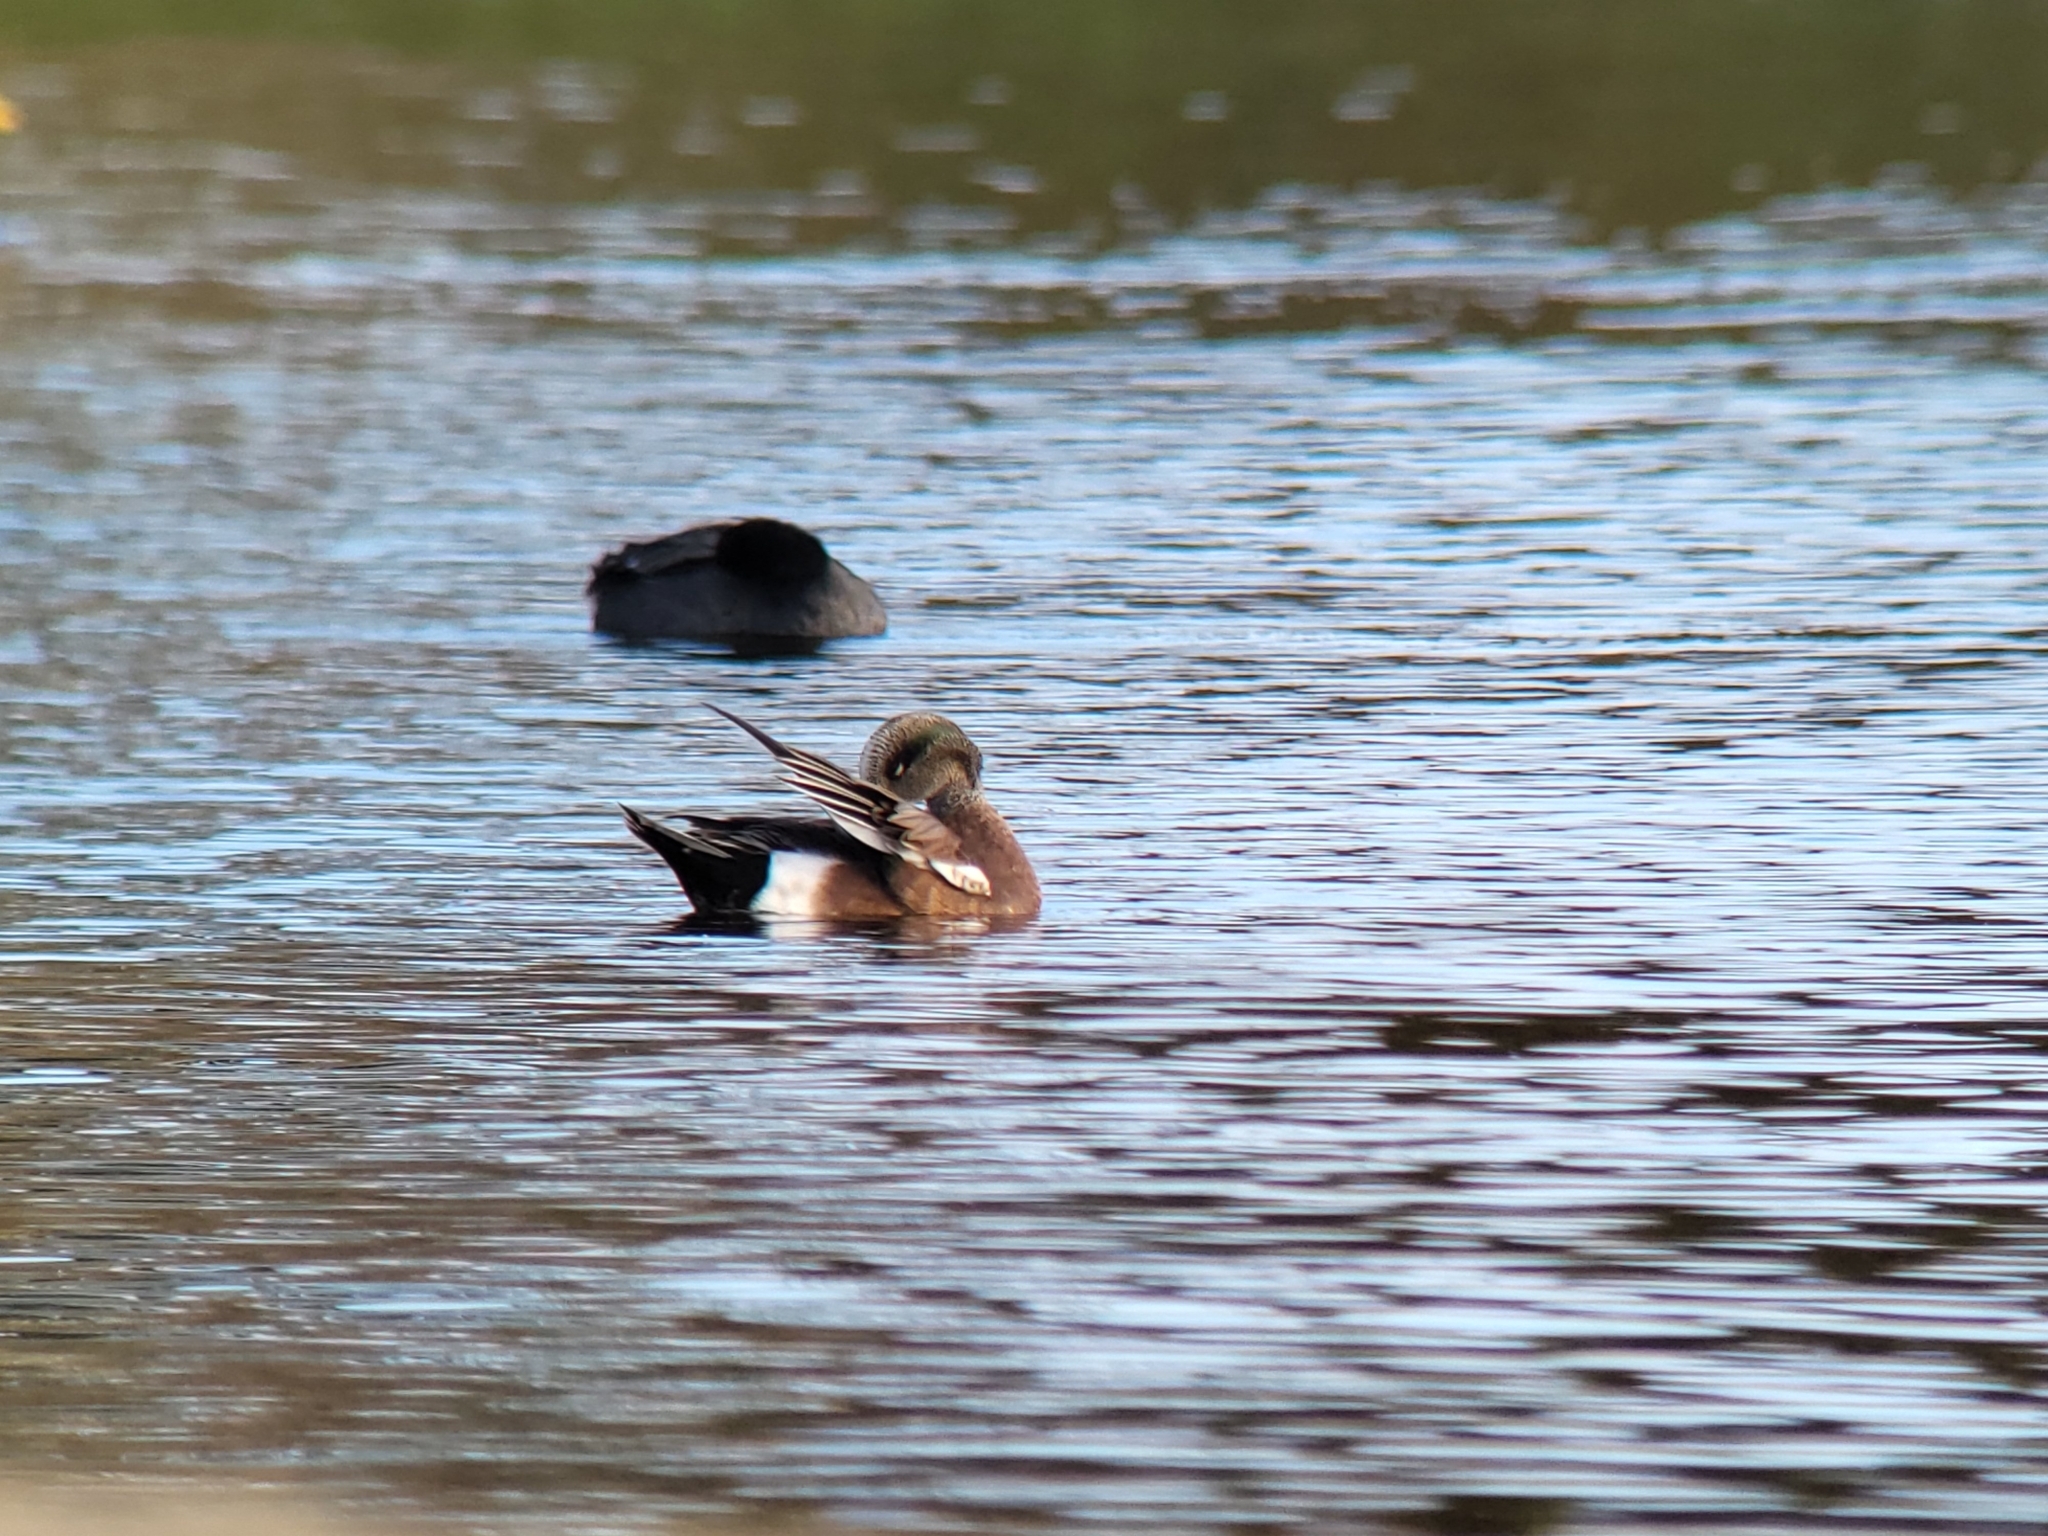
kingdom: Animalia
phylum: Chordata
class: Aves
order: Anseriformes
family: Anatidae
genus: Mareca
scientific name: Mareca americana
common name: American wigeon
